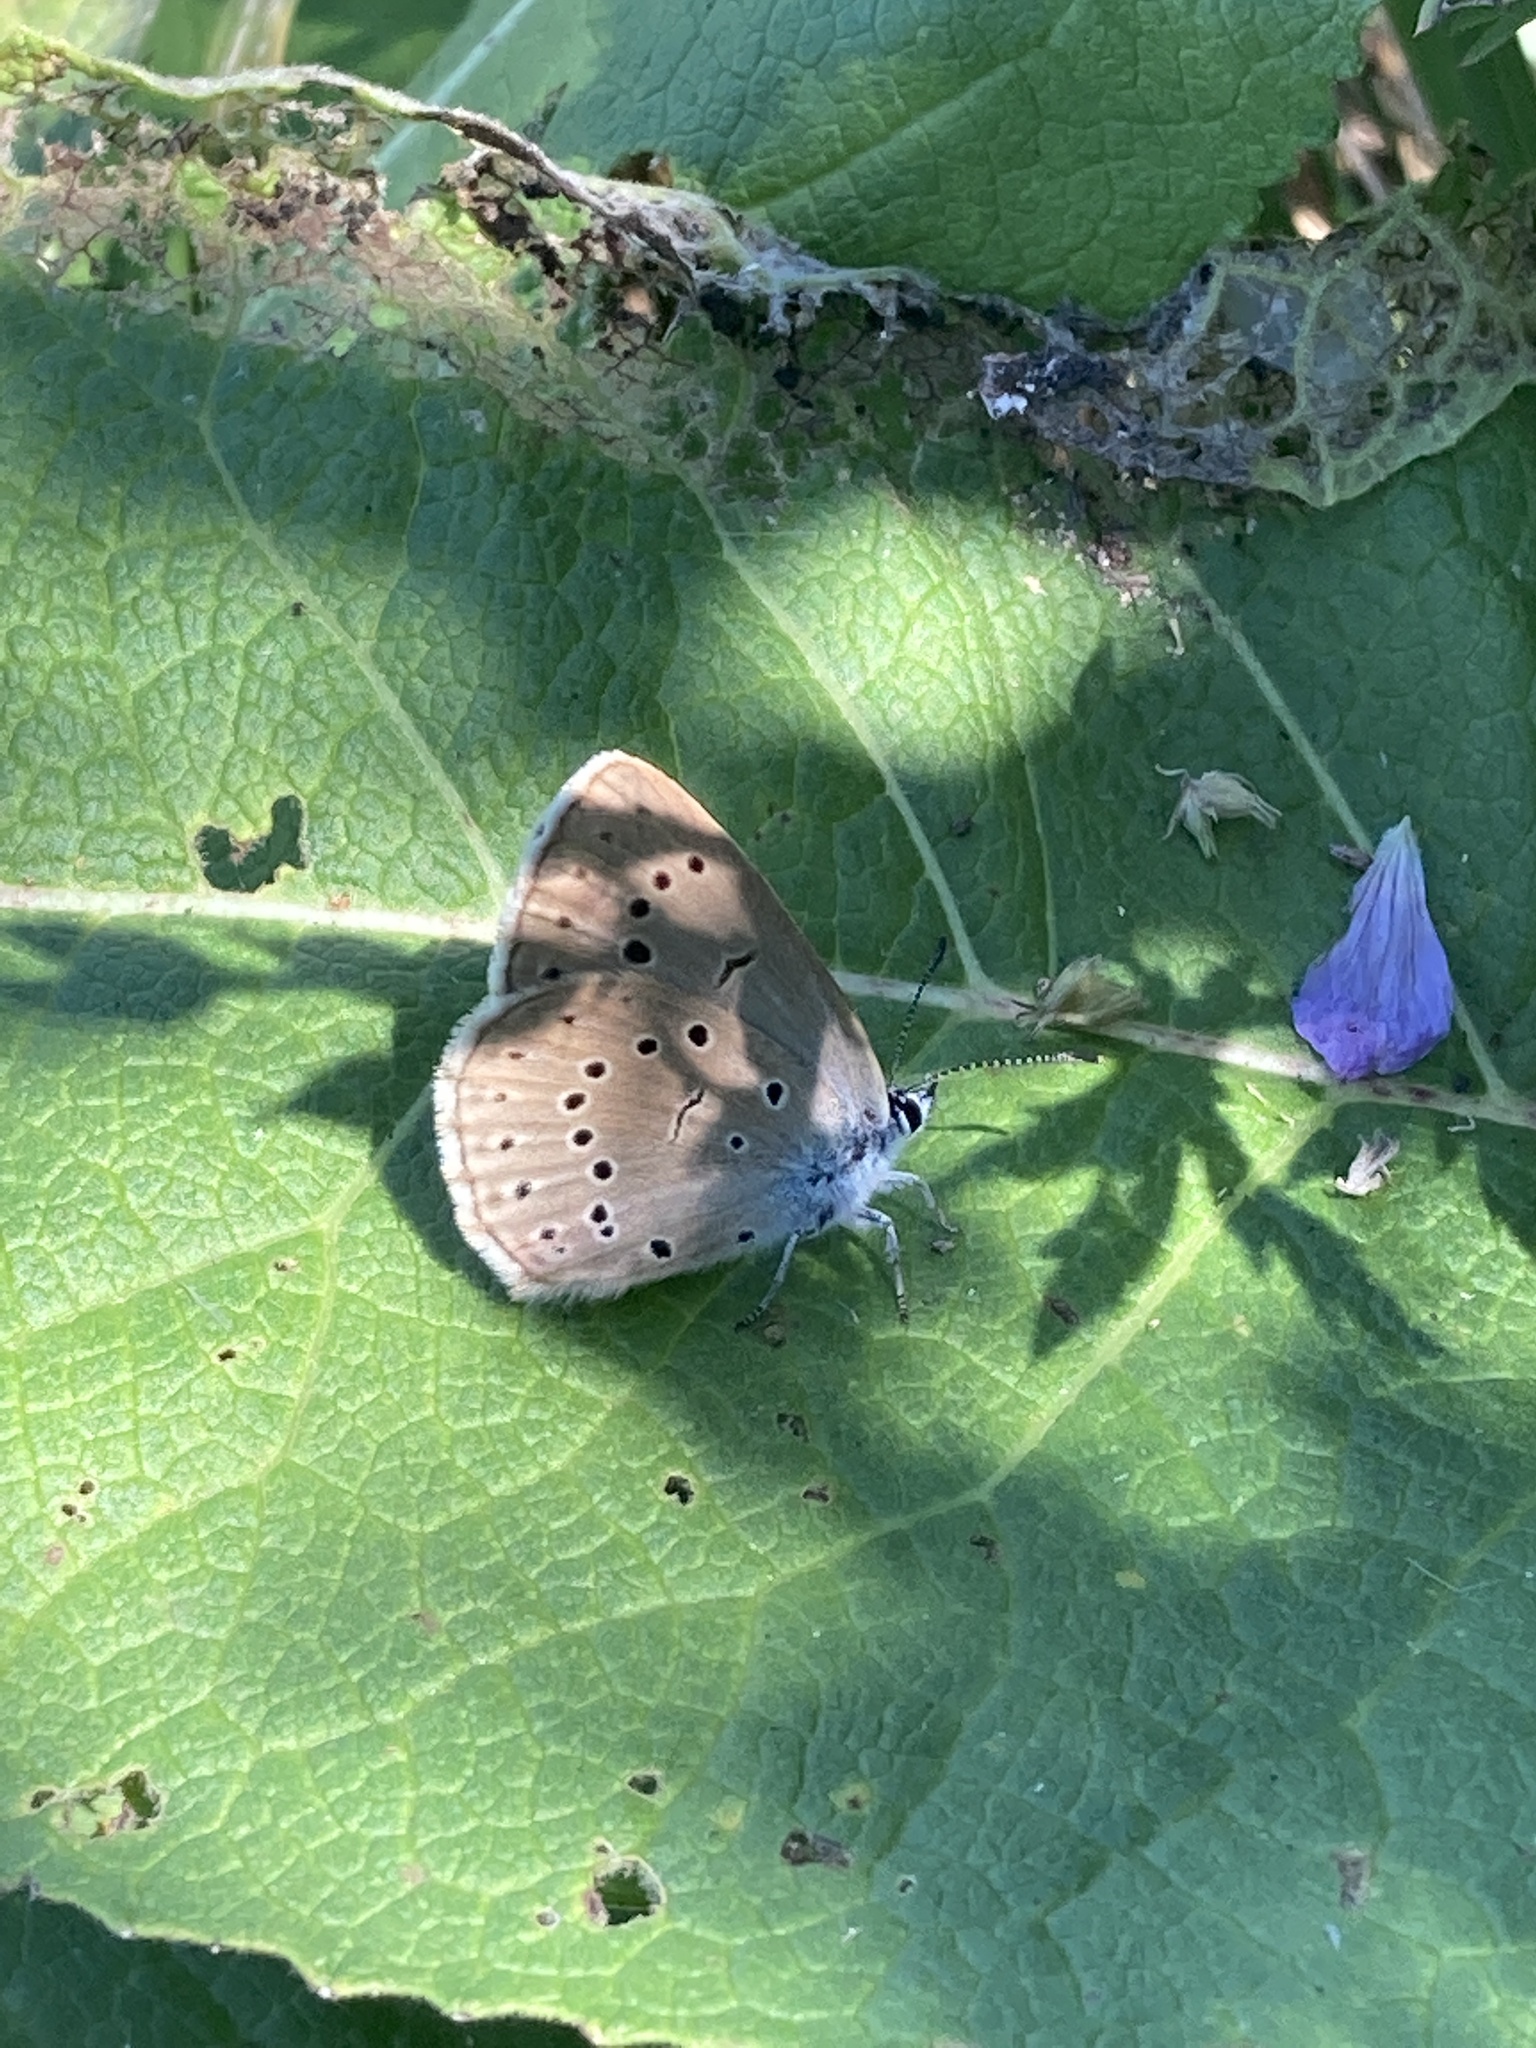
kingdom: Animalia
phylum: Arthropoda
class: Insecta
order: Lepidoptera
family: Lycaenidae
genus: Phengaris
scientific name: Phengaris teleius
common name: Scarce large blue
